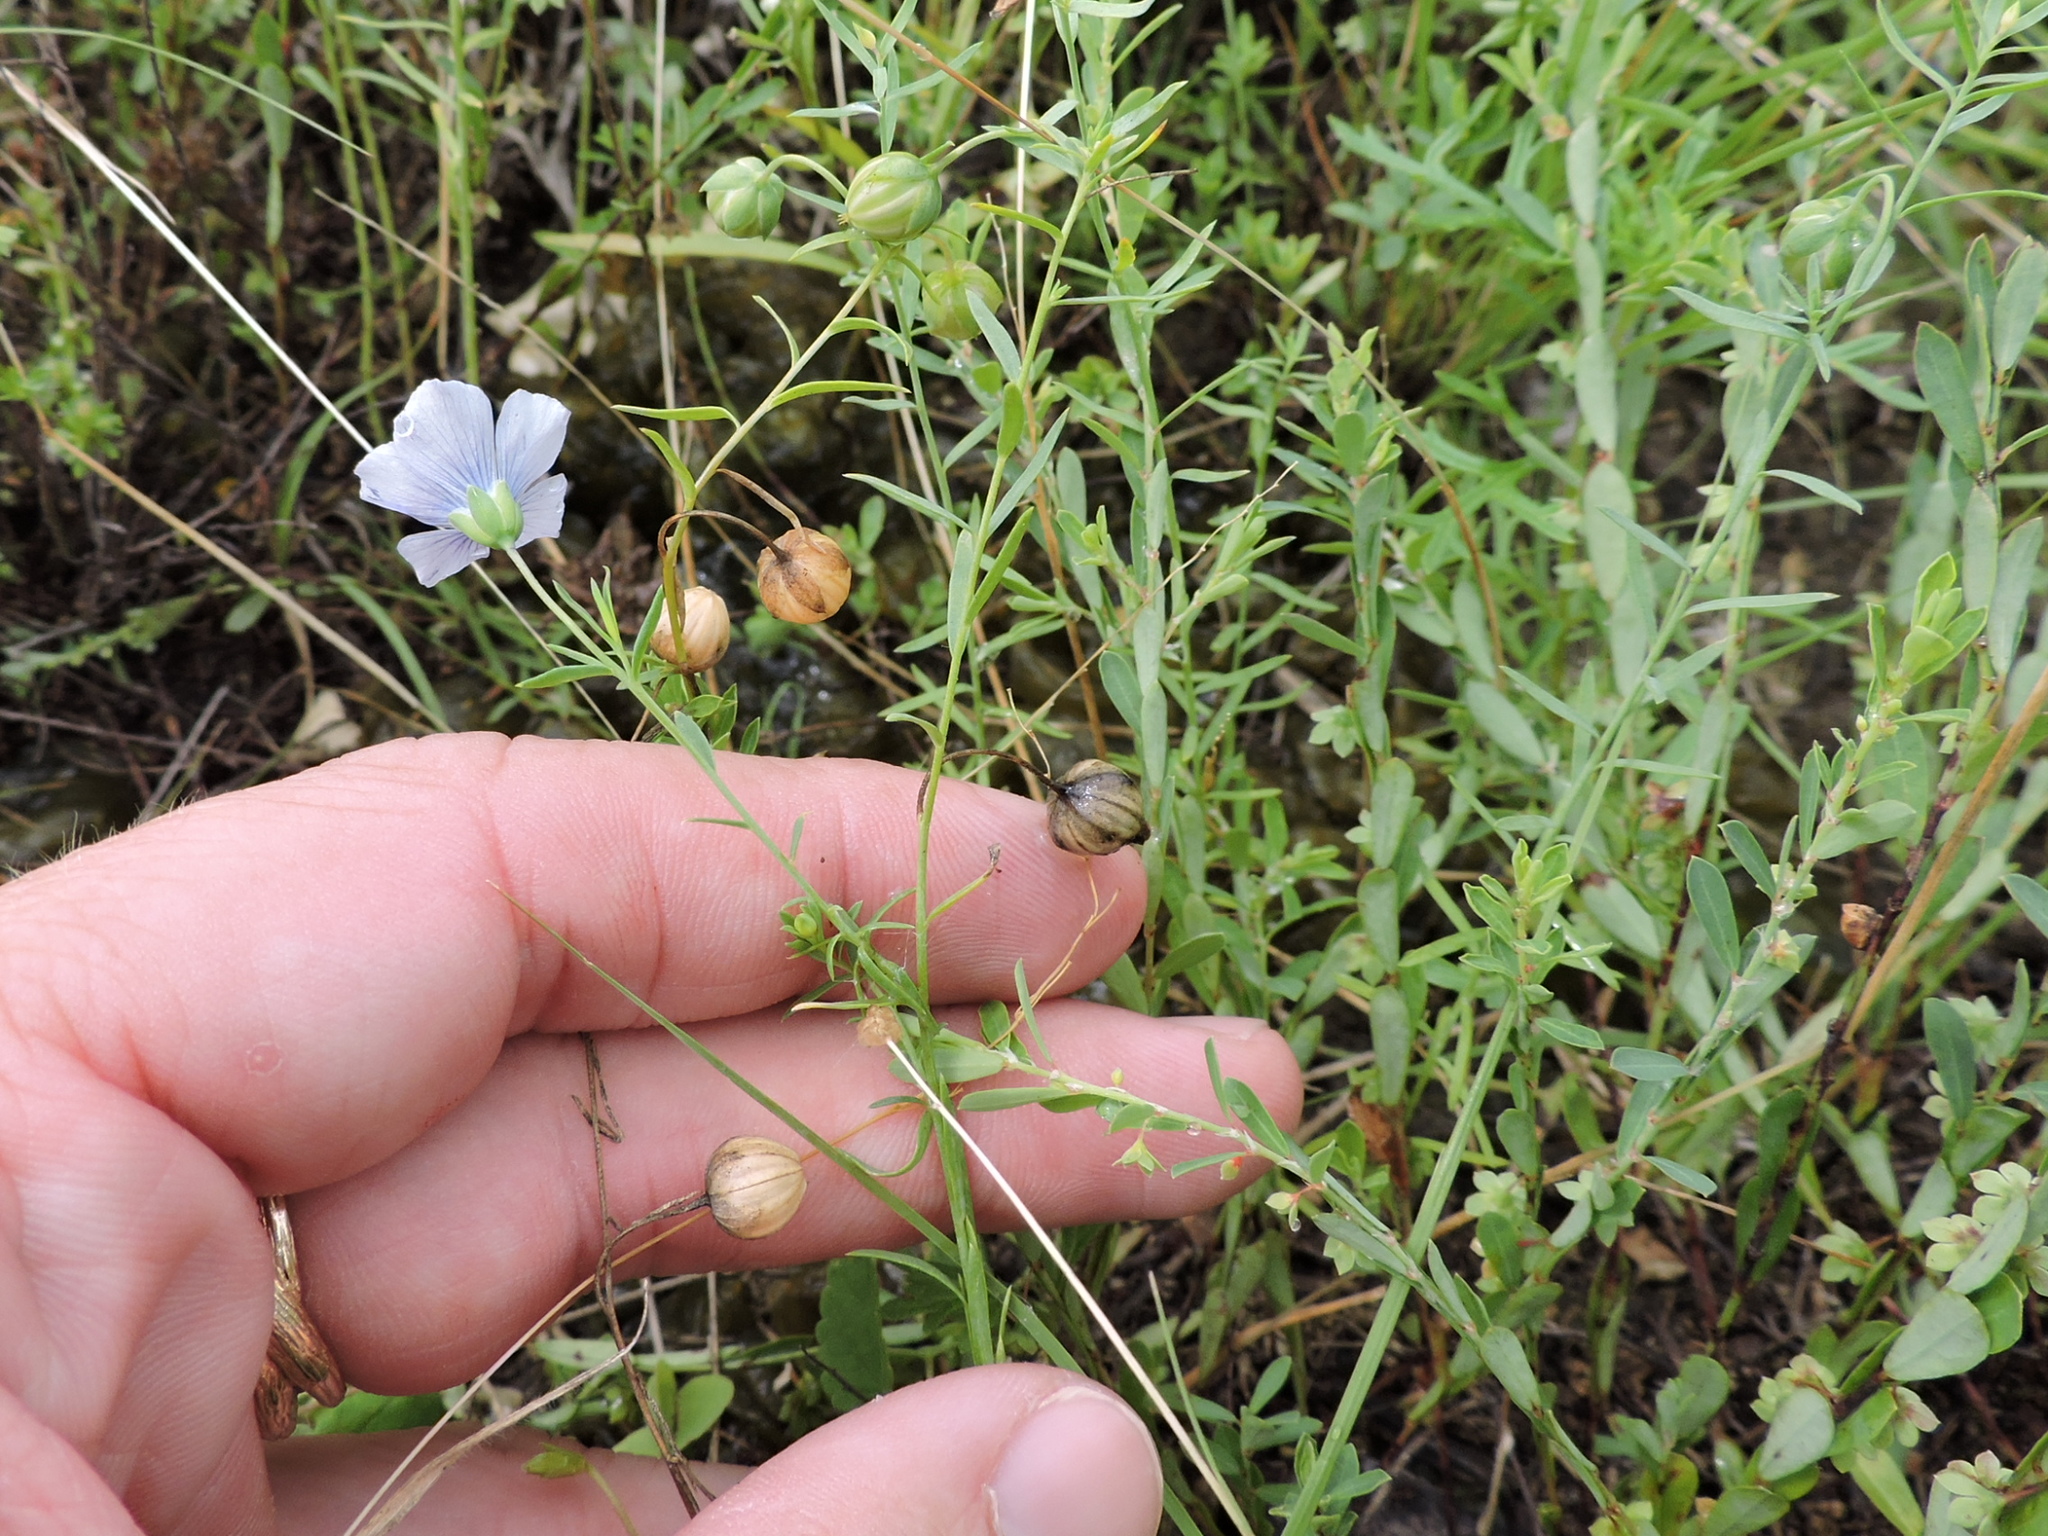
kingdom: Plantae
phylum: Tracheophyta
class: Magnoliopsida
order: Malpighiales
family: Linaceae
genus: Linum
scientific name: Linum pratense
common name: Norton's flax
